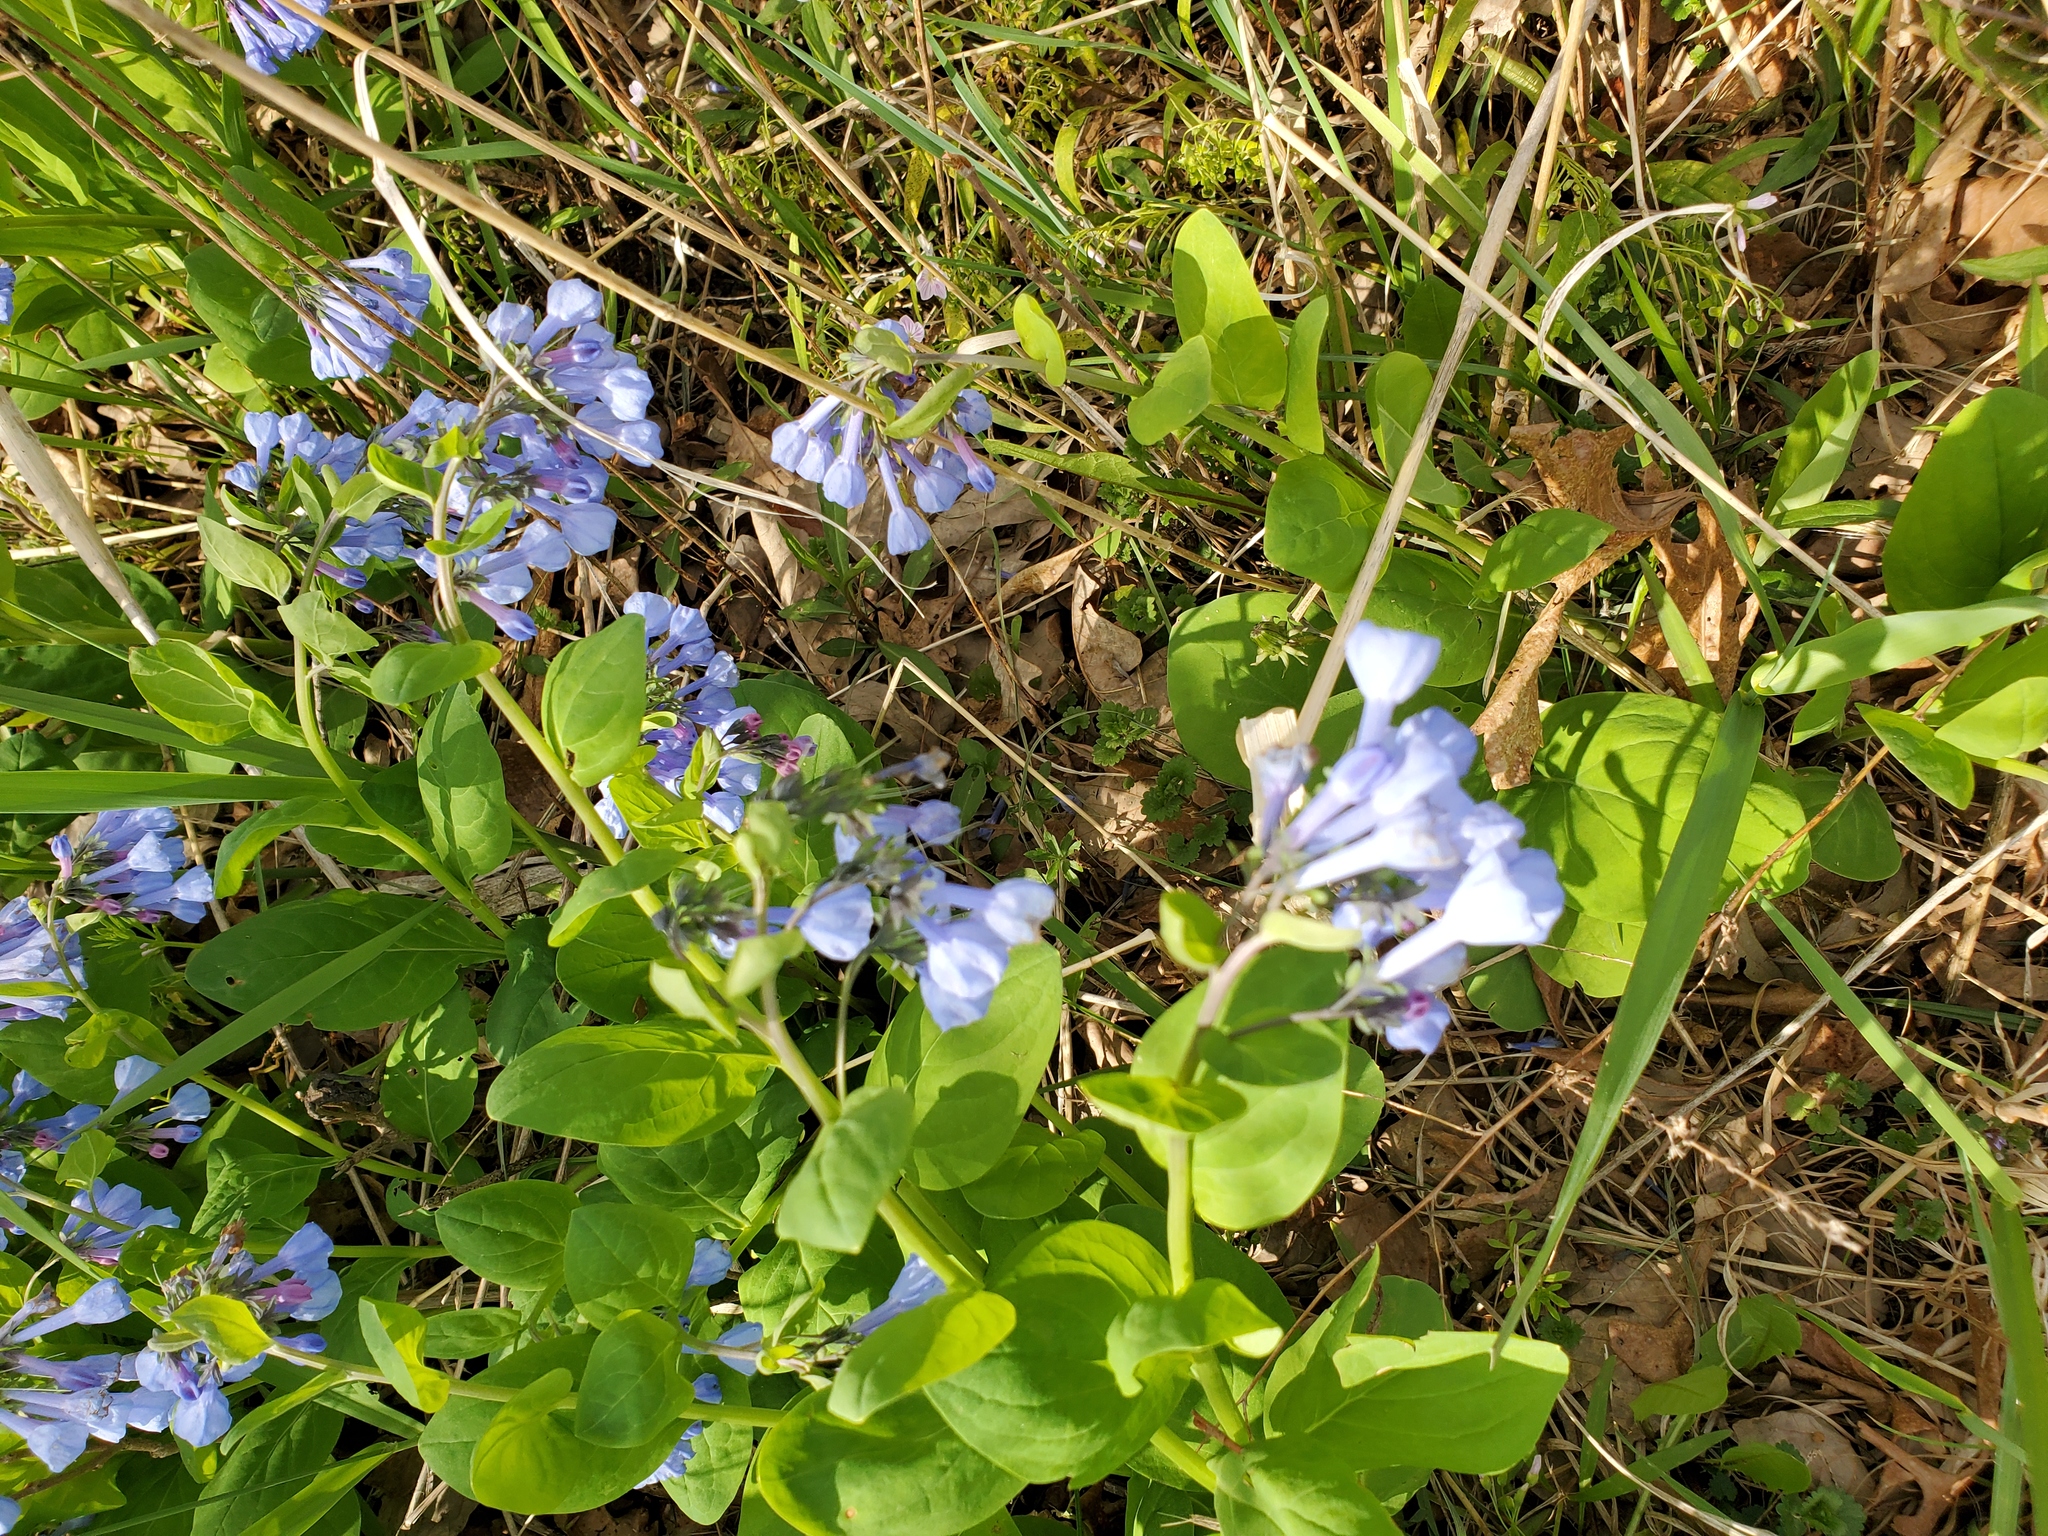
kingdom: Plantae
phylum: Tracheophyta
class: Magnoliopsida
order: Boraginales
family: Boraginaceae
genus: Mertensia
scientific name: Mertensia virginica
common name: Virginia bluebells
